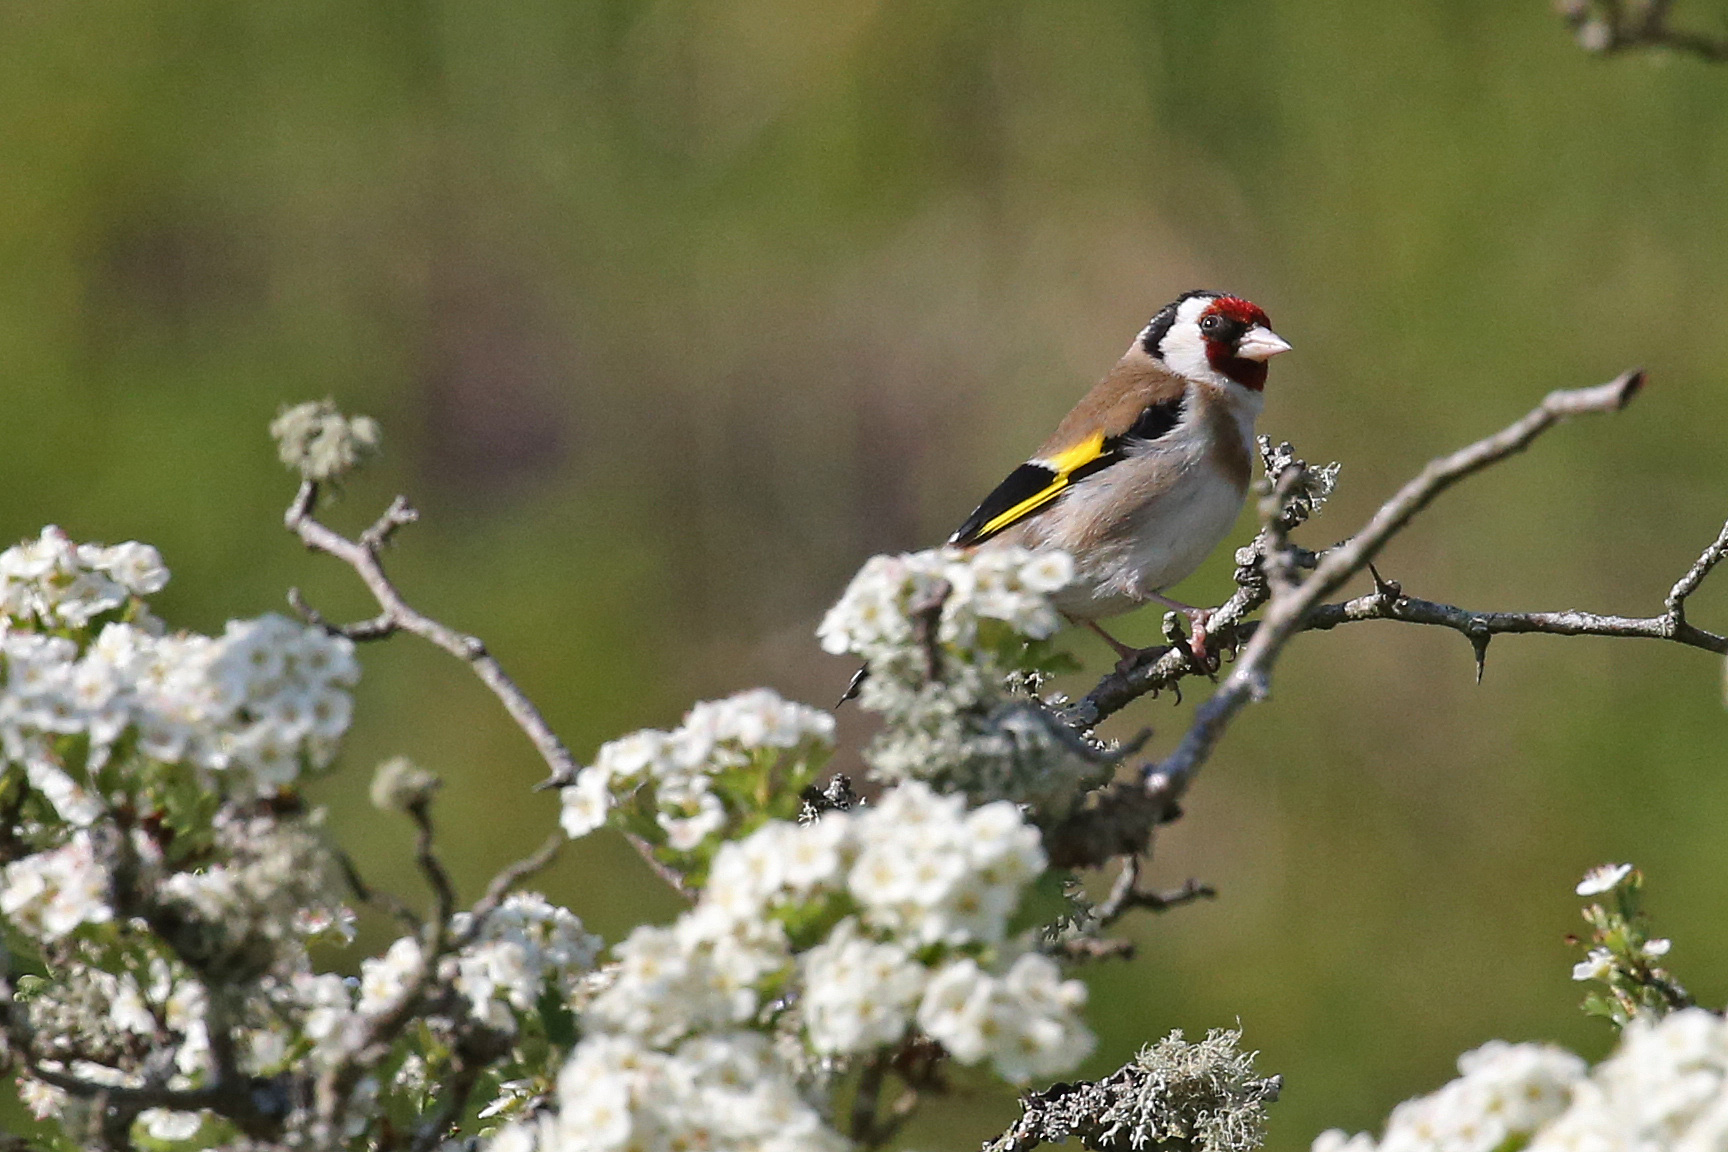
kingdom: Animalia
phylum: Chordata
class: Aves
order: Passeriformes
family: Fringillidae
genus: Carduelis
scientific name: Carduelis carduelis
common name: European goldfinch
